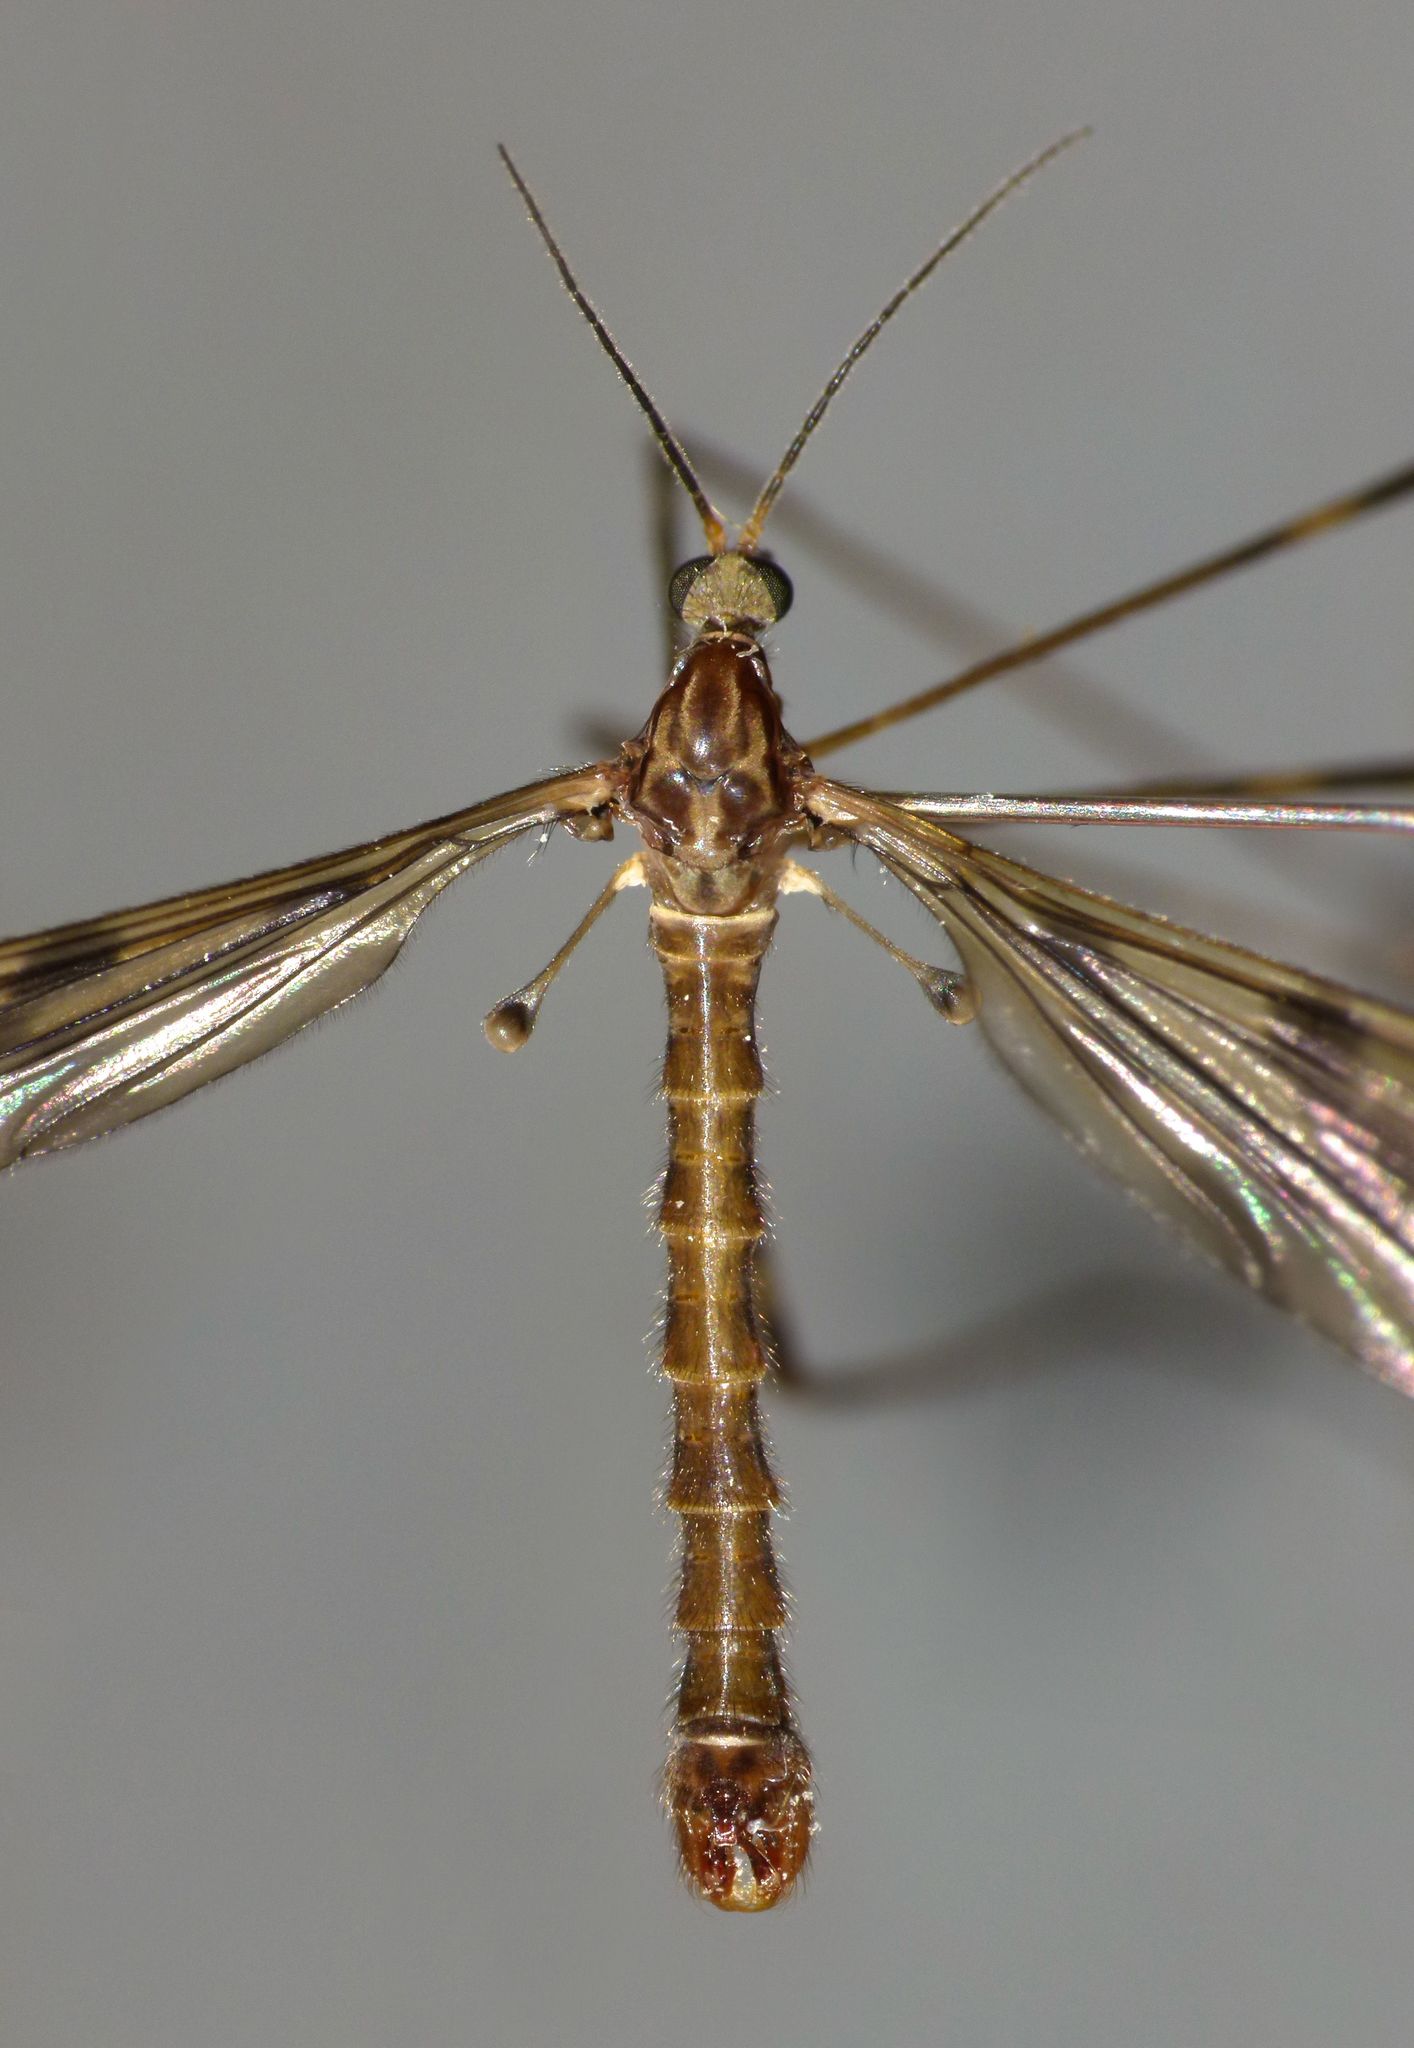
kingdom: Animalia
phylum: Arthropoda
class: Insecta
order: Diptera
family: Limoniidae
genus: Austrolimnophila
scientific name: Austrolimnophila chrysorrhoea
